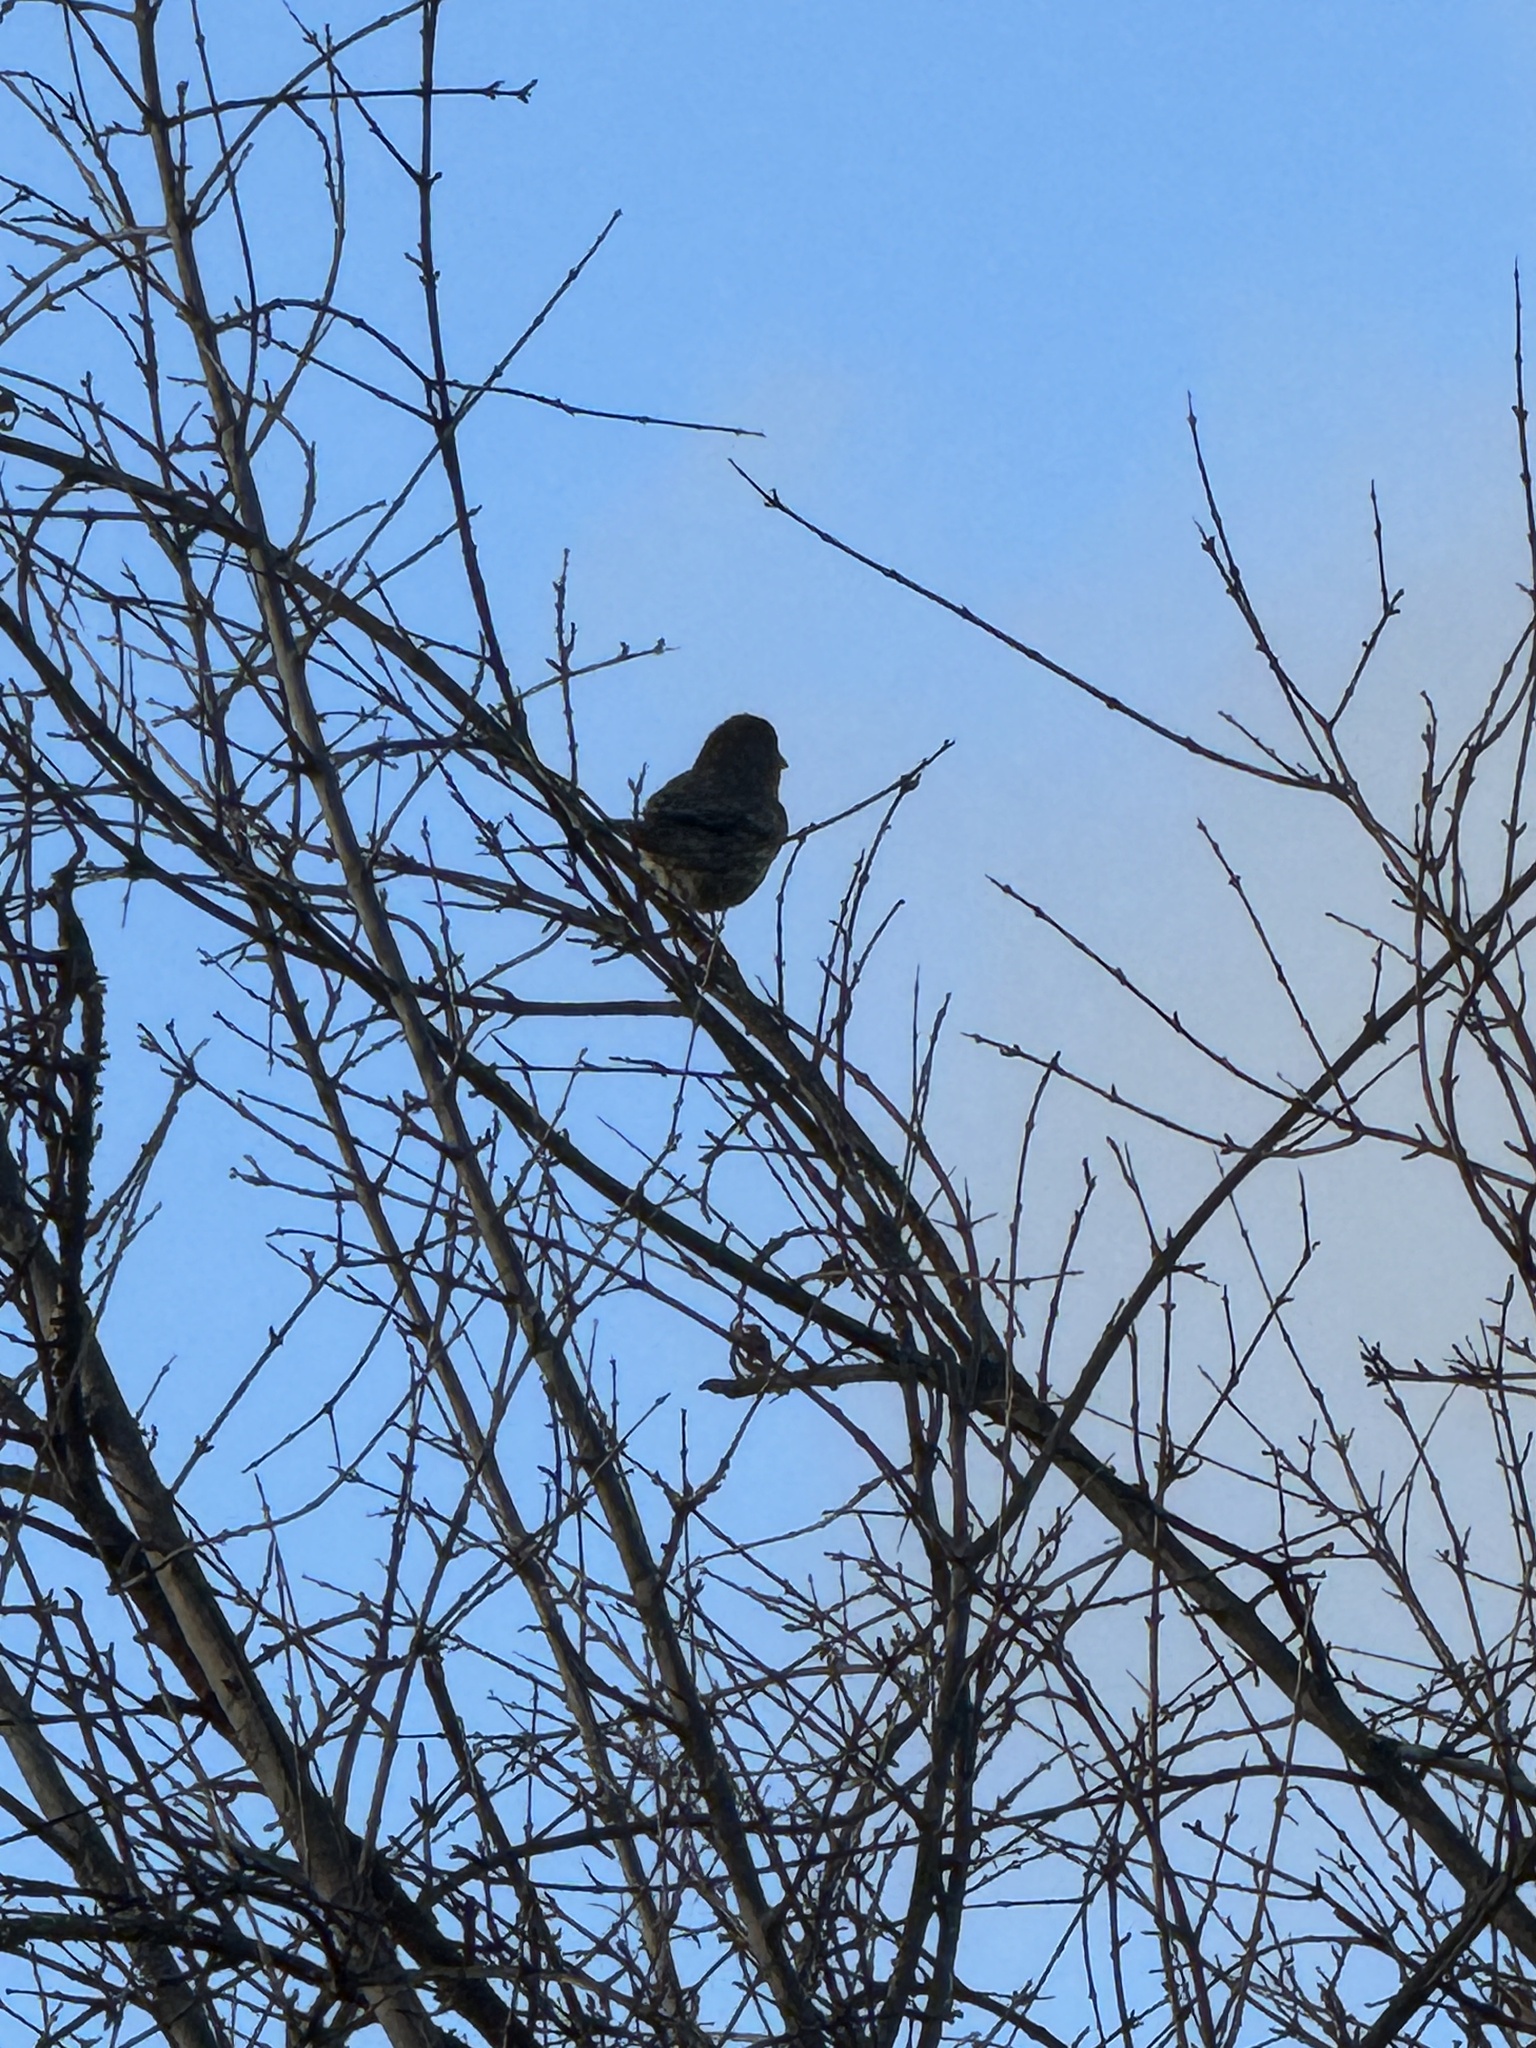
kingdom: Animalia
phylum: Chordata
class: Aves
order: Passeriformes
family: Fringillidae
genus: Haemorhous
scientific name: Haemorhous mexicanus
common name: House finch
